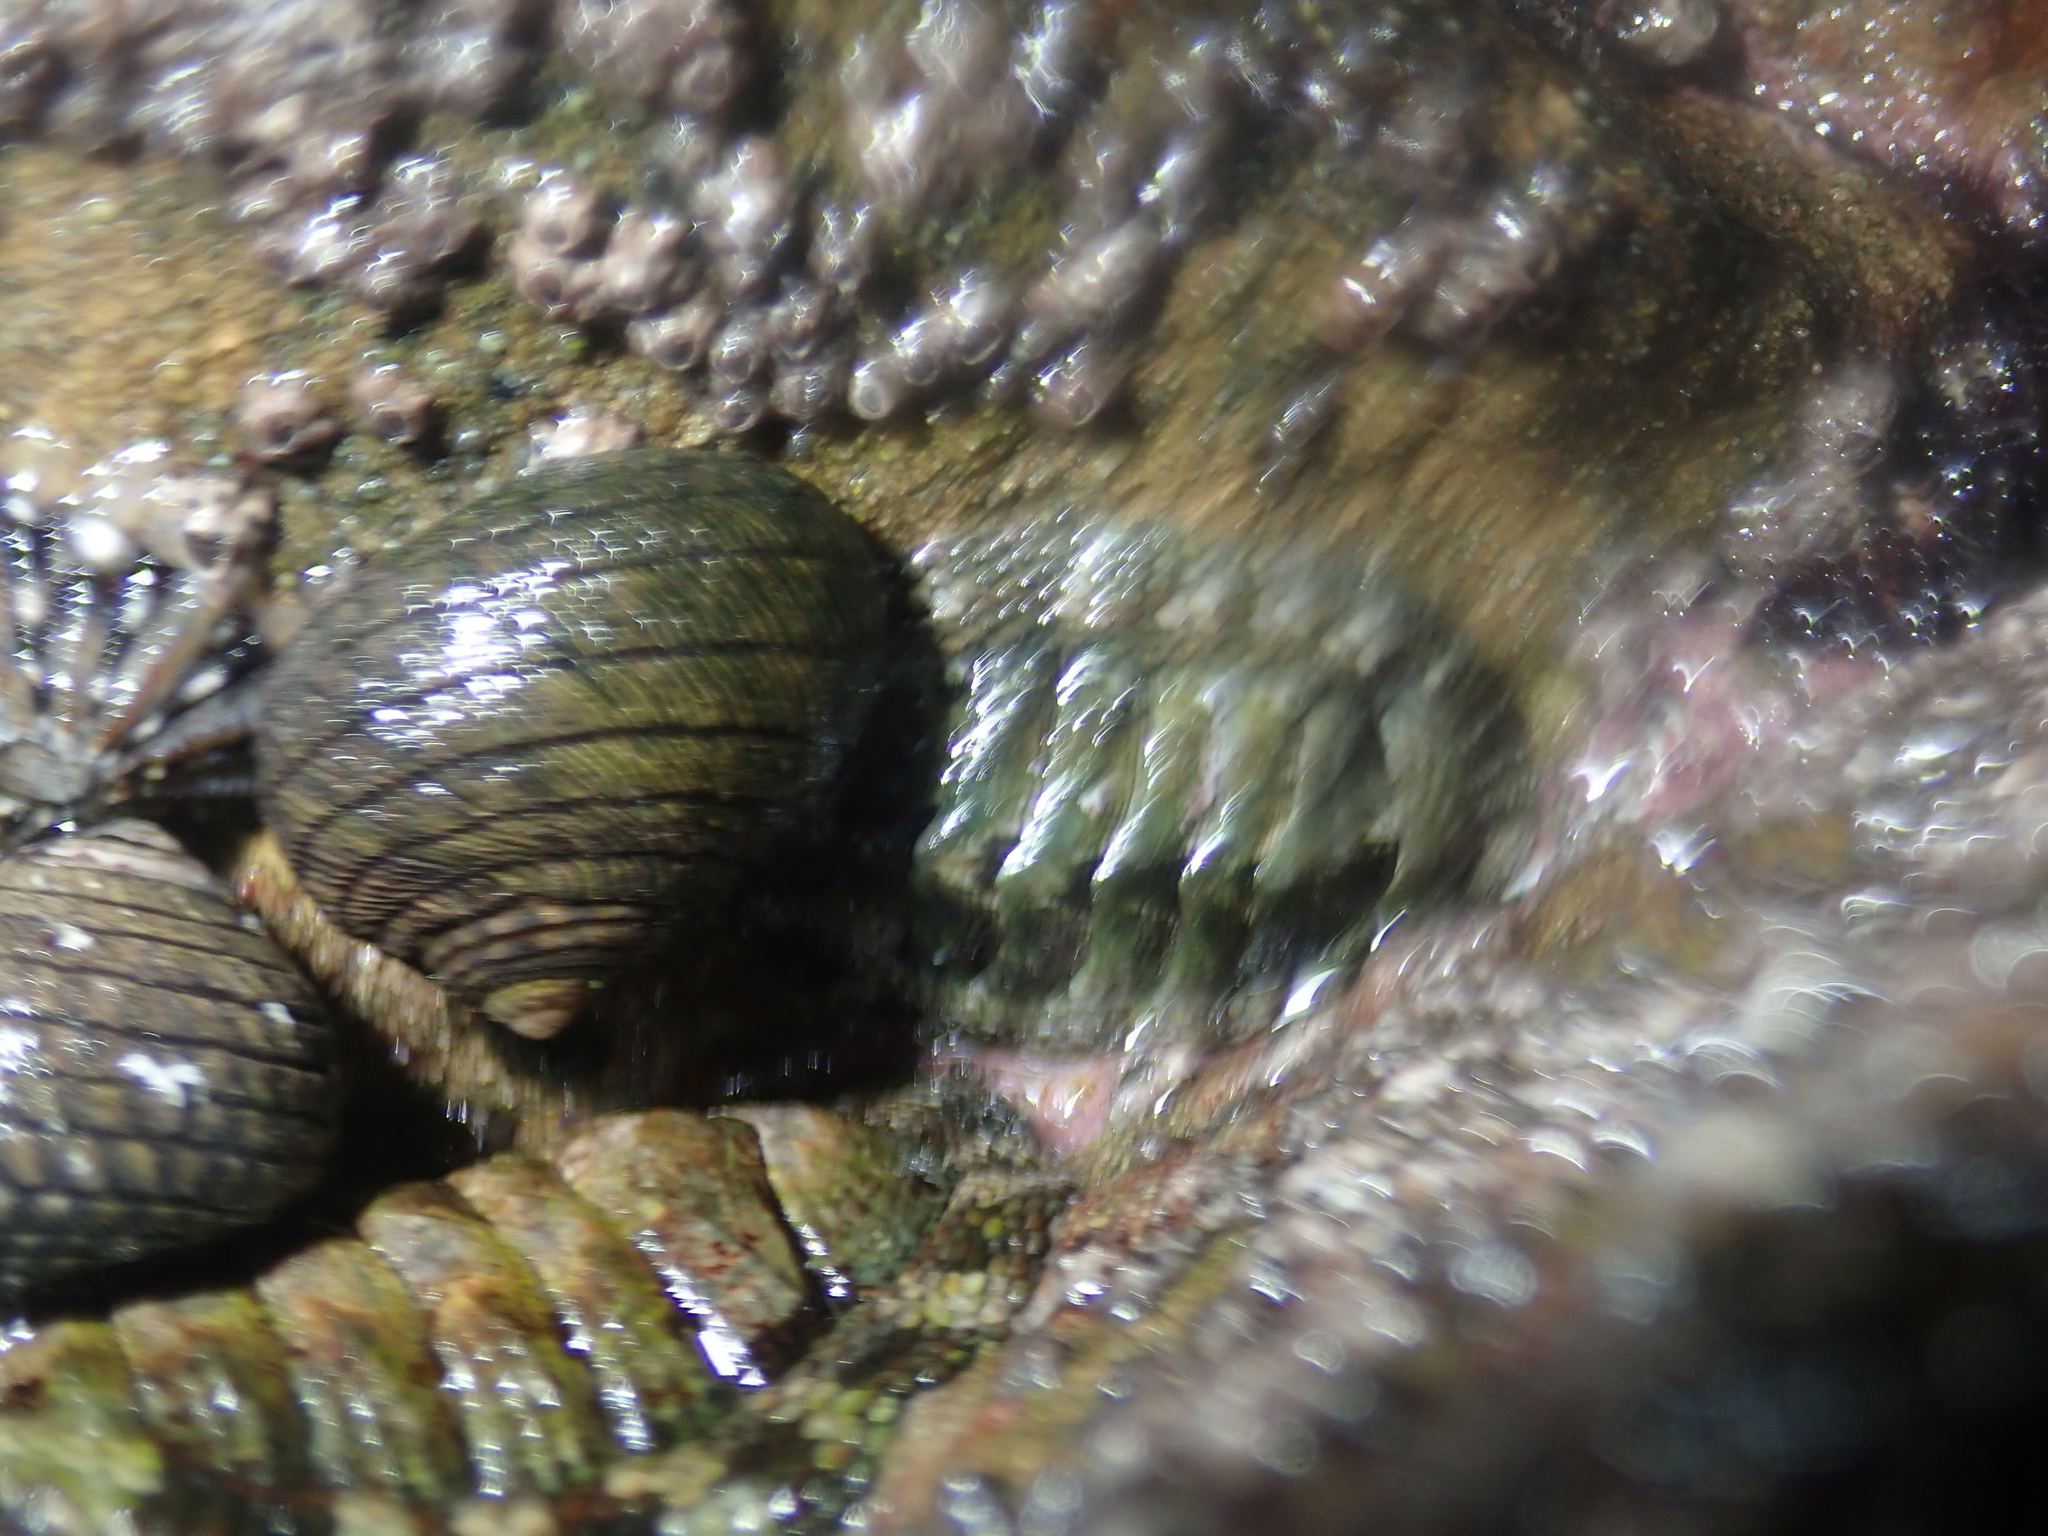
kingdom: Animalia
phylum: Mollusca
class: Gastropoda
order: Trochida
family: Trochidae
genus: Diloma
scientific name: Diloma aethiops
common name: Scorched monodont
